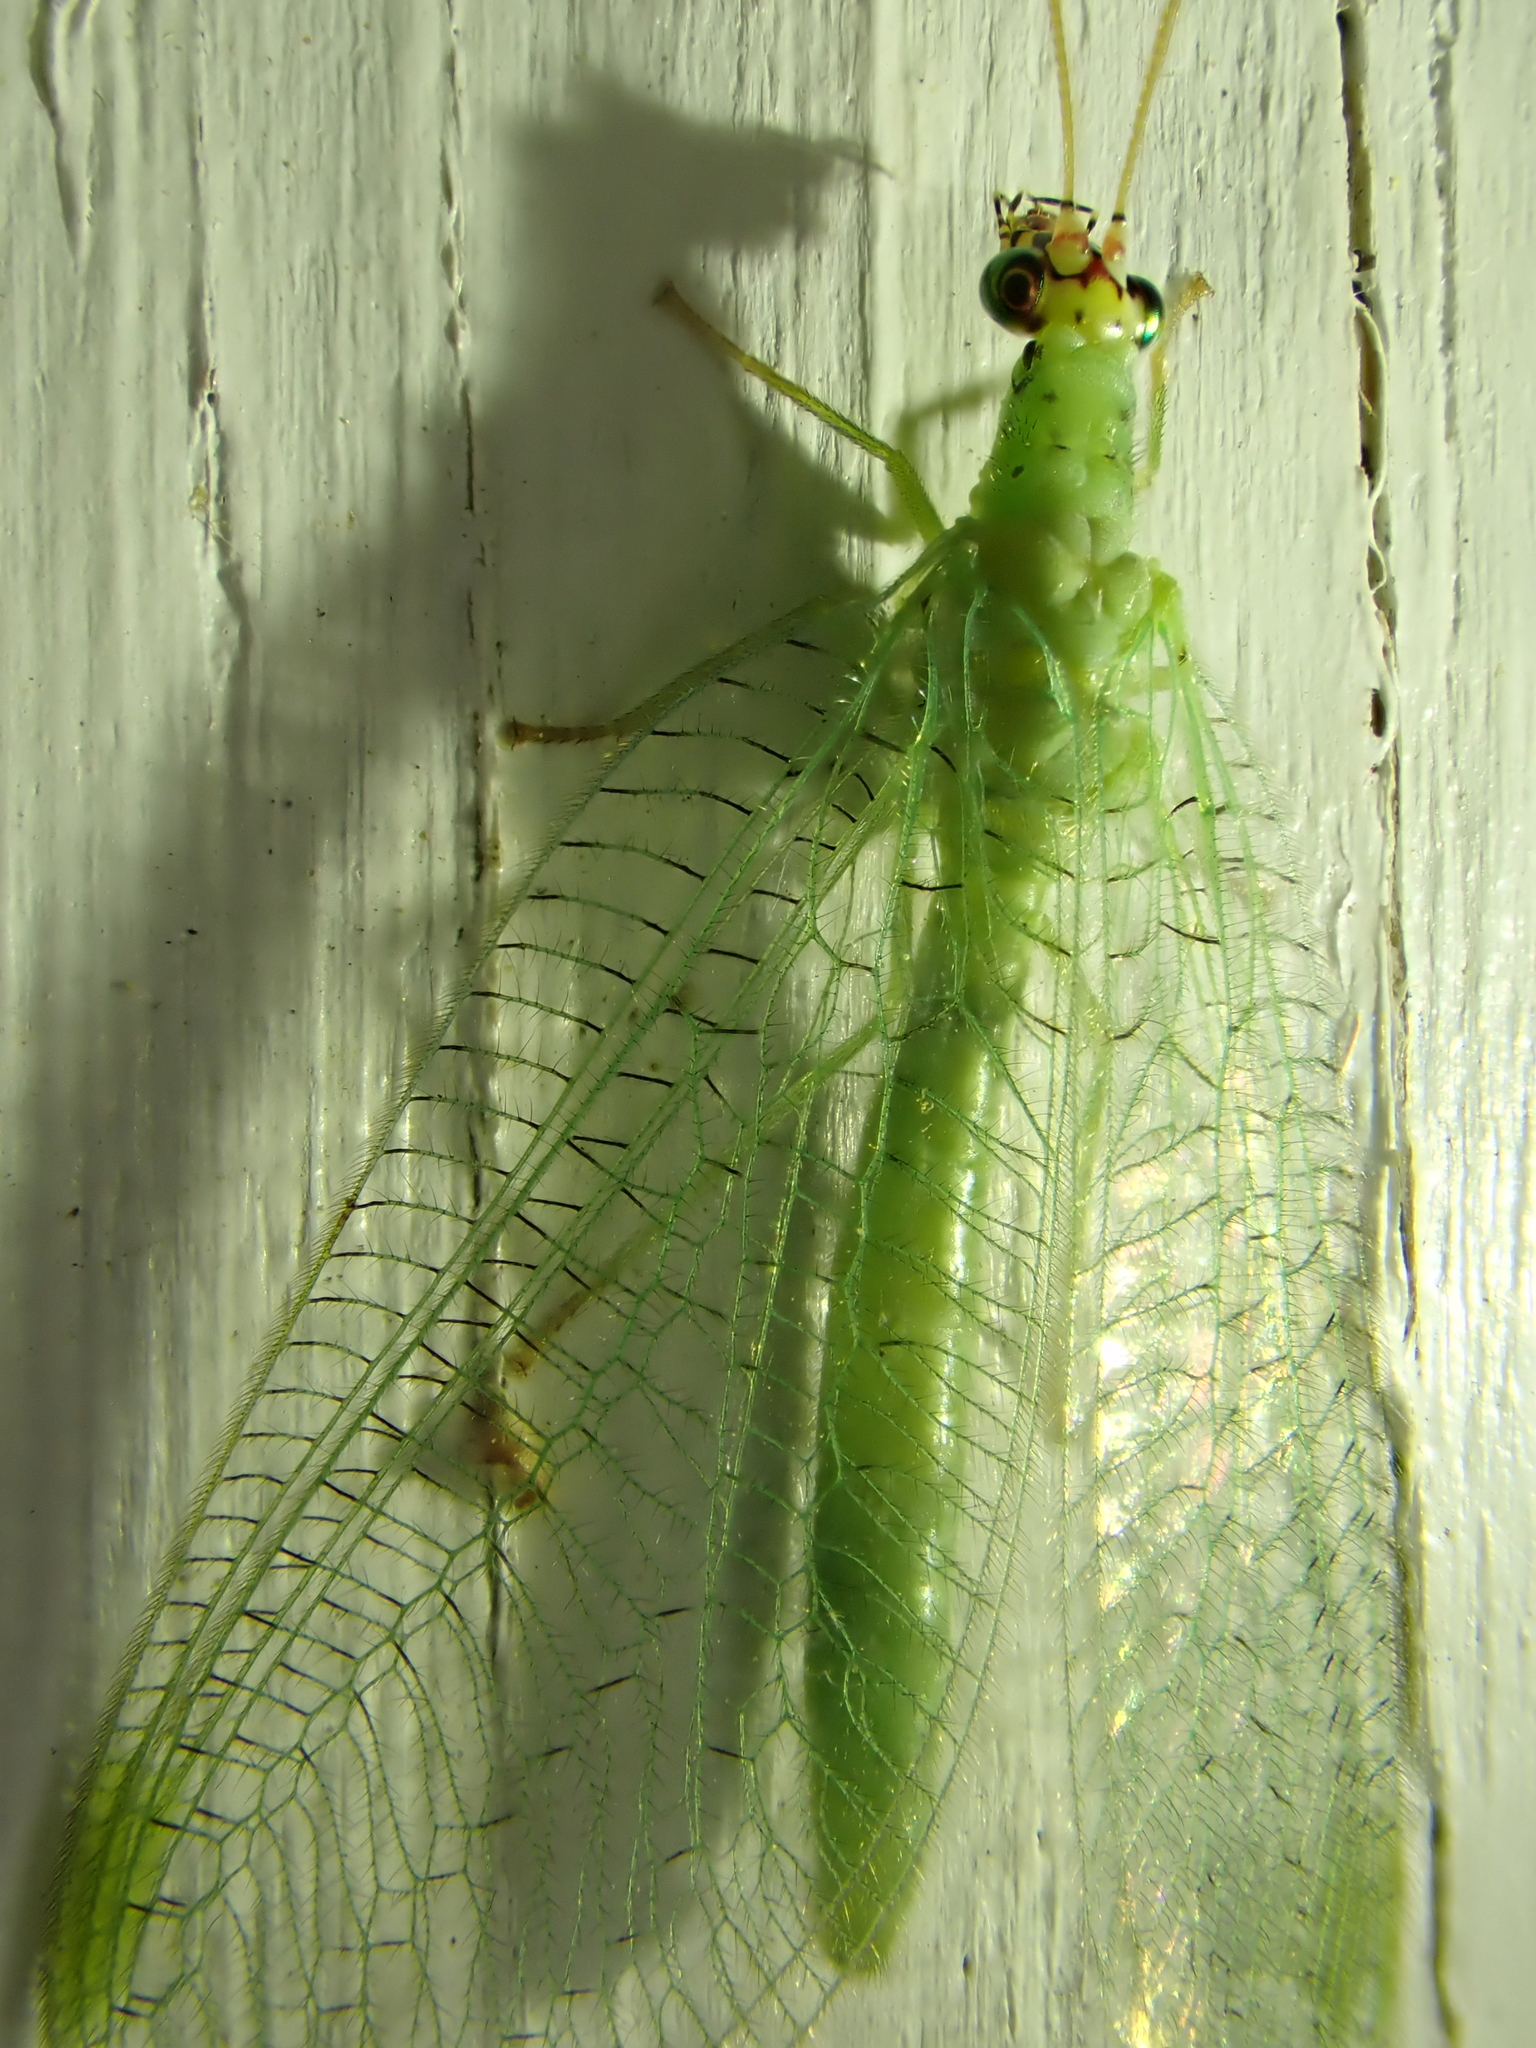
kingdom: Animalia
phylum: Arthropoda
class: Insecta
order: Neuroptera
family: Chrysopidae
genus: Chrysopa
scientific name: Chrysopa oculata
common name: Golden-eyed lacewing
